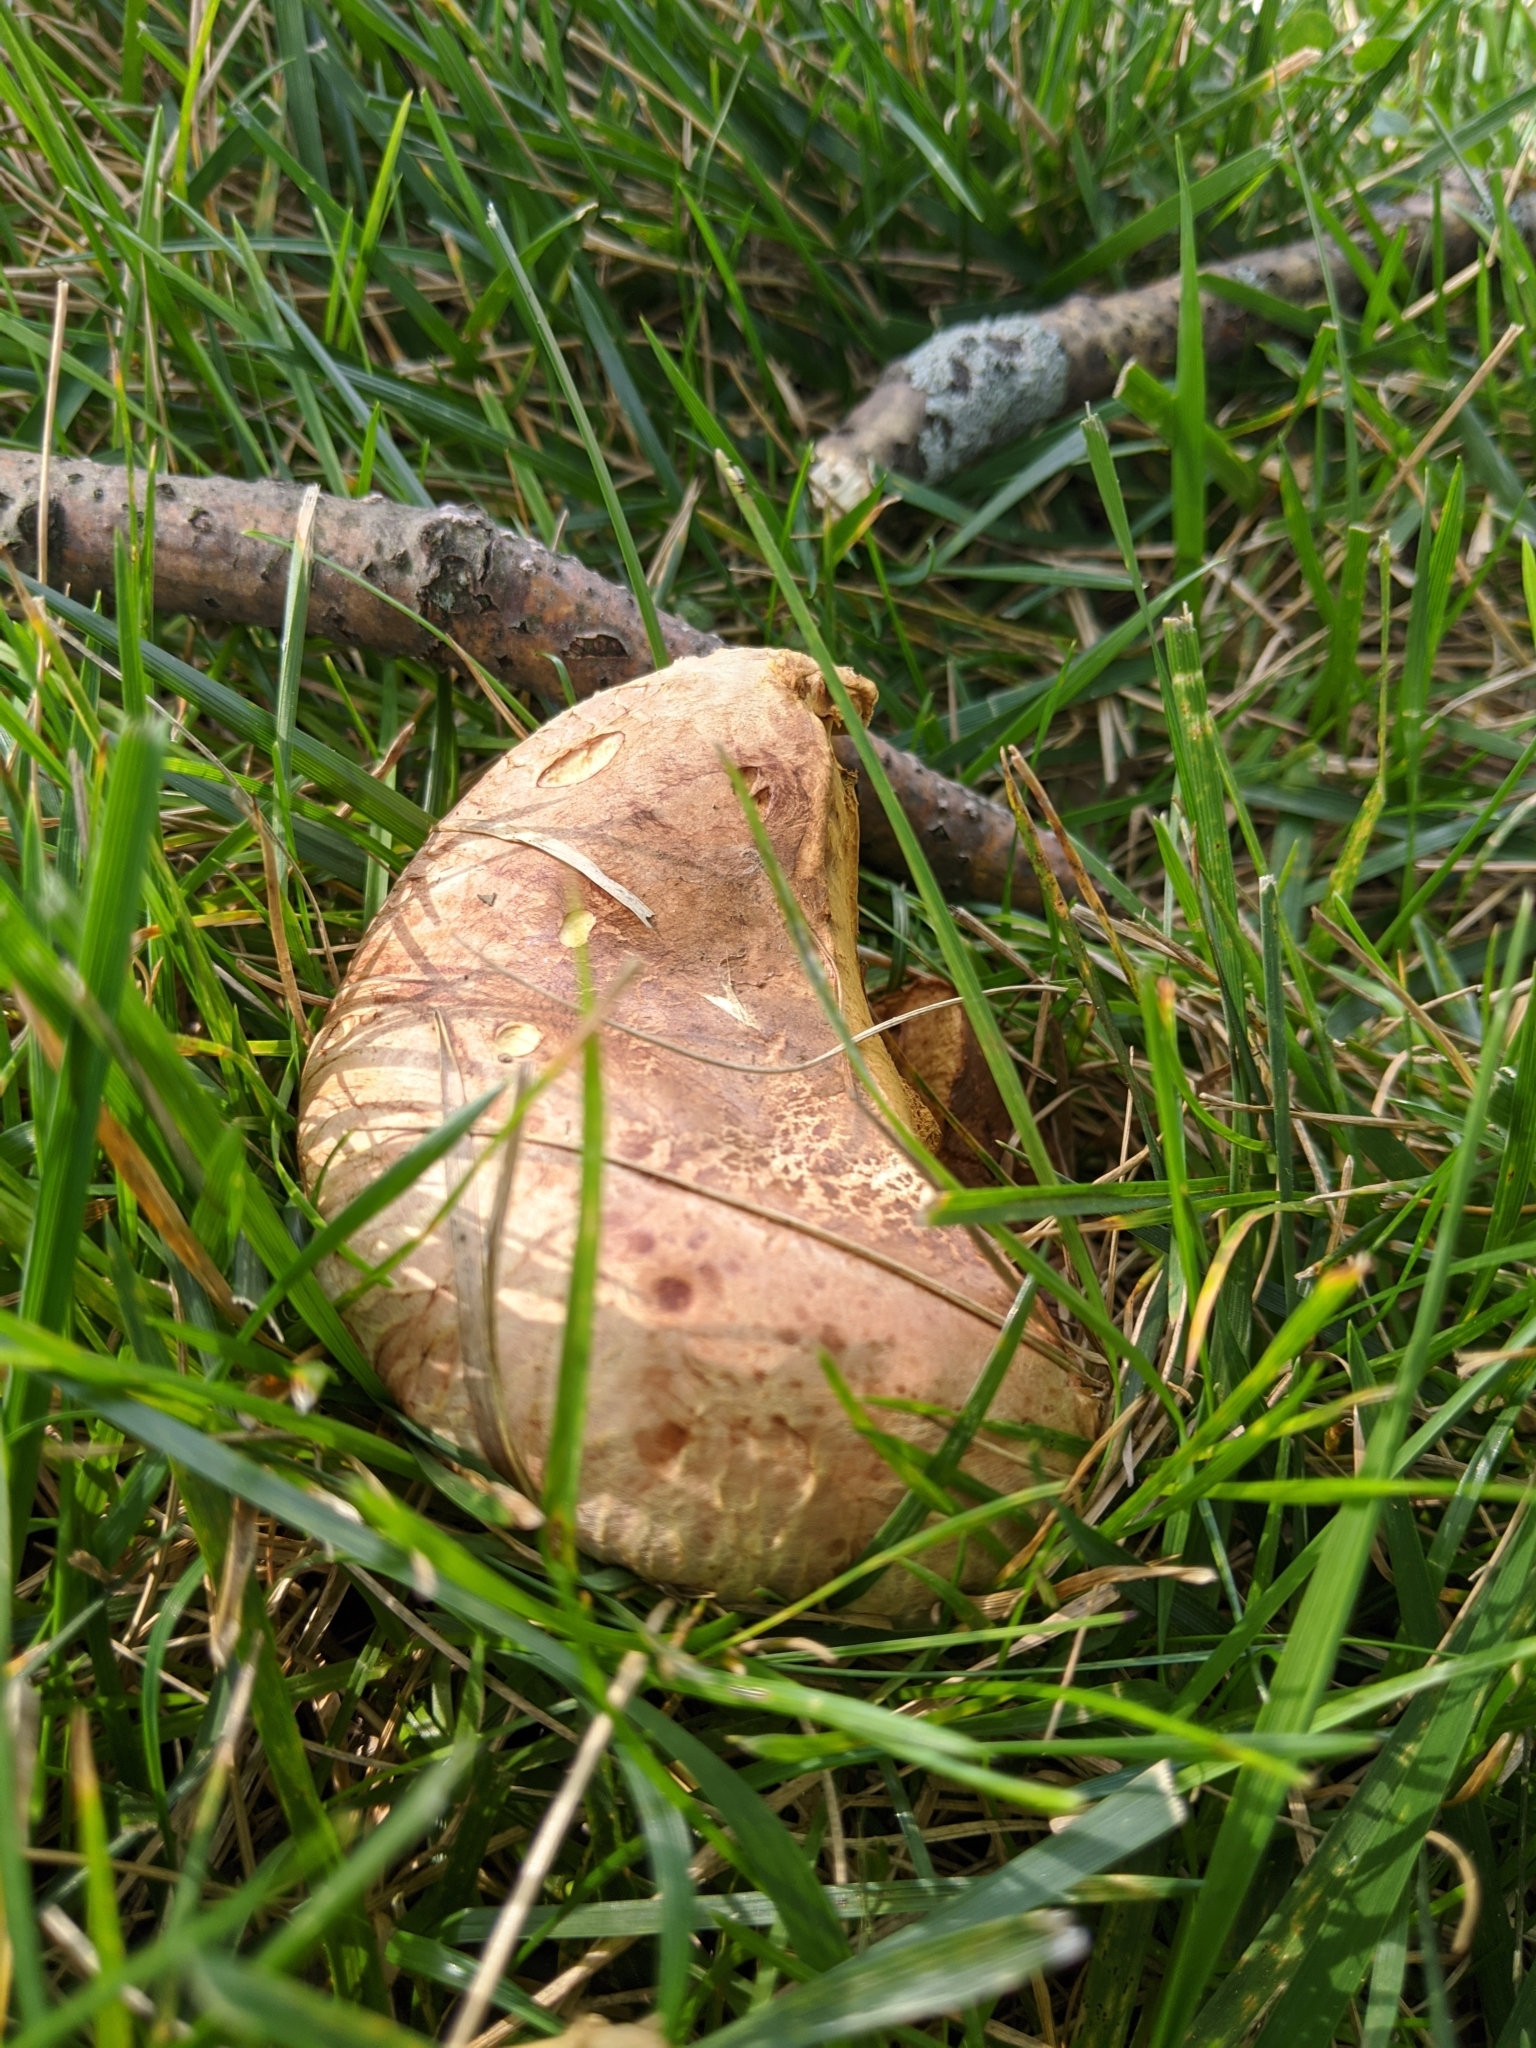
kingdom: Fungi
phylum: Basidiomycota
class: Agaricomycetes
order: Boletales
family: Paxillaceae
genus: Paxillus
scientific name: Paxillus involutus
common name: Brown roll rim
